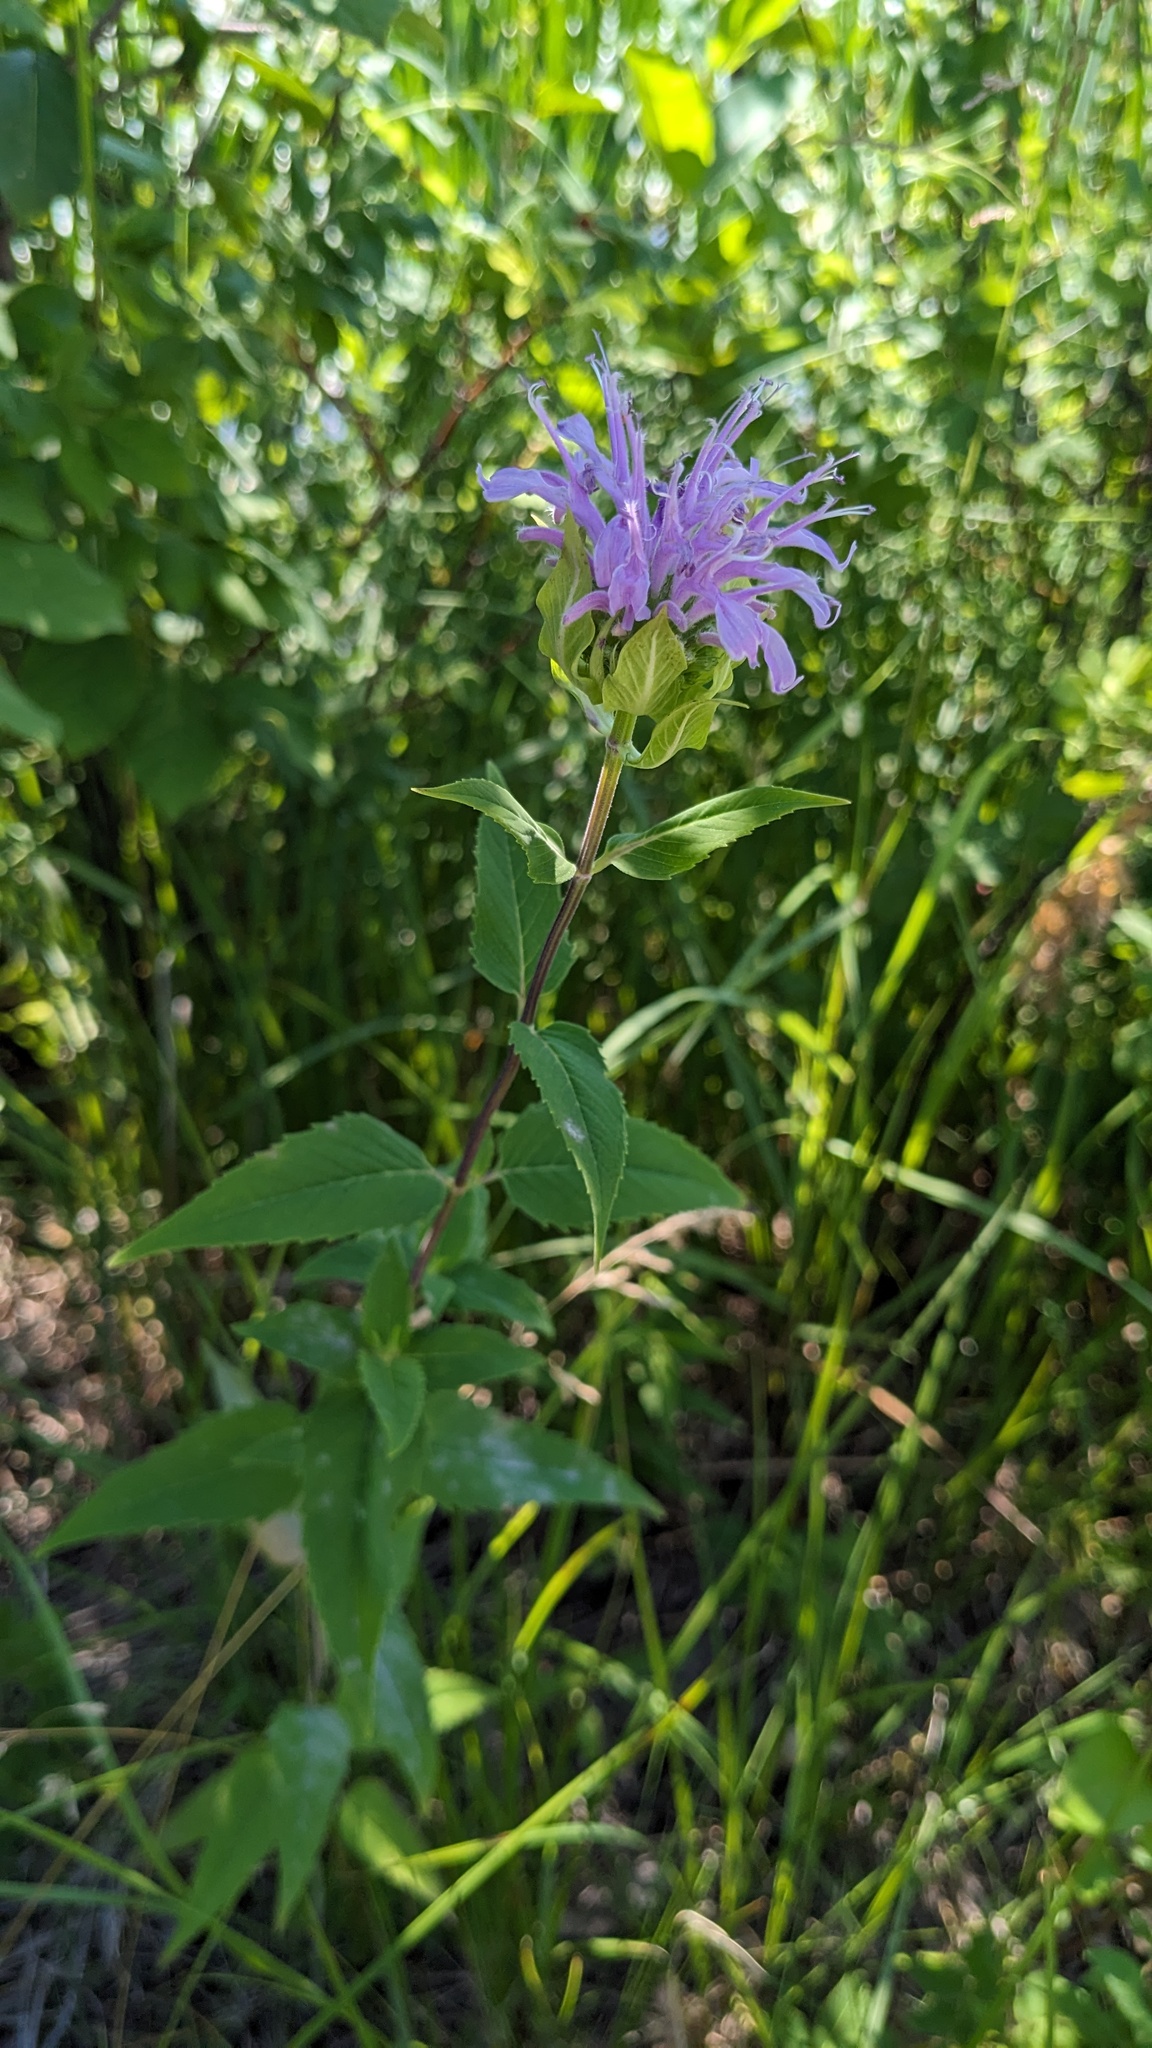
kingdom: Plantae
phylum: Tracheophyta
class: Magnoliopsida
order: Lamiales
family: Lamiaceae
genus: Monarda
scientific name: Monarda fistulosa
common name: Purple beebalm
